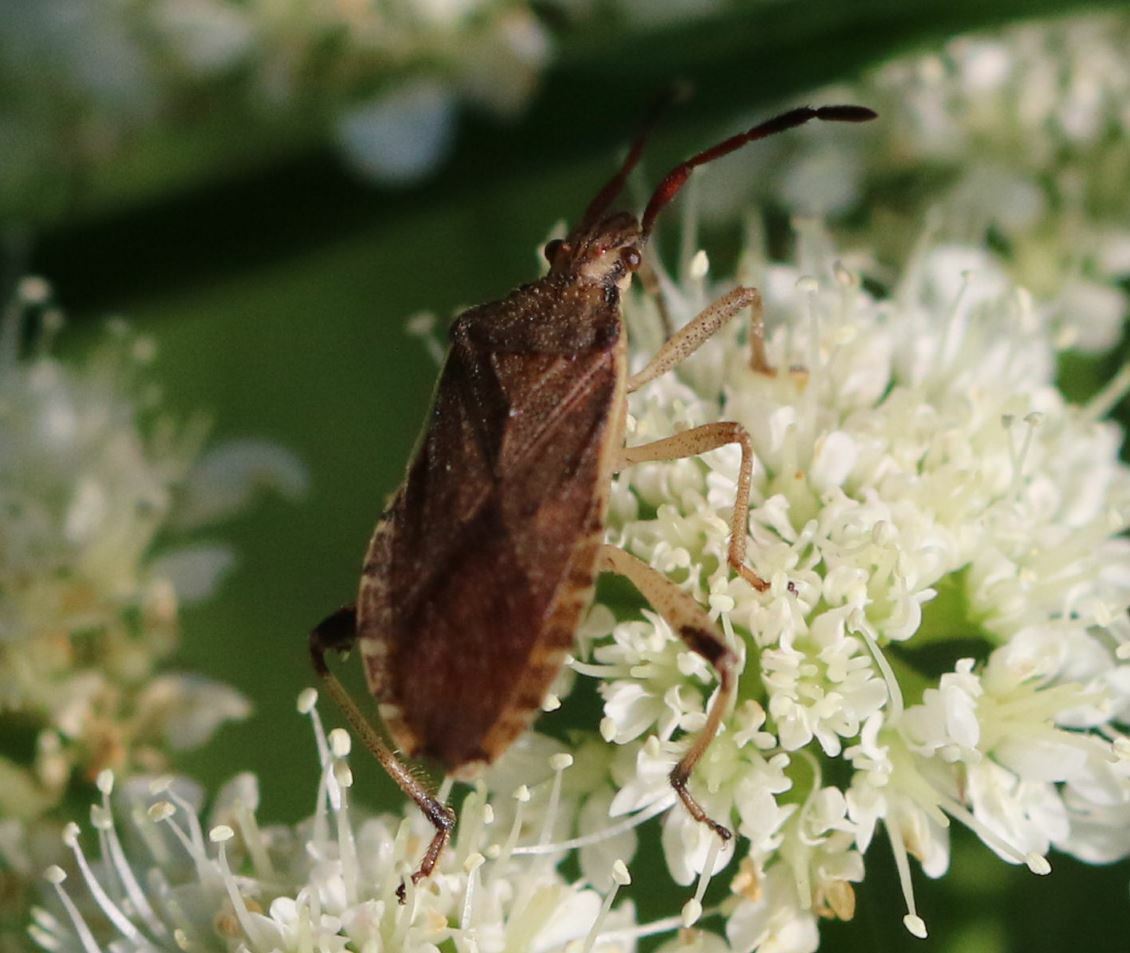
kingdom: Animalia
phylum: Arthropoda
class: Insecta
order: Hemiptera
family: Coreidae
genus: Ceraleptus
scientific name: Ceraleptus lividus
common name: Slender-horned leatherbug
